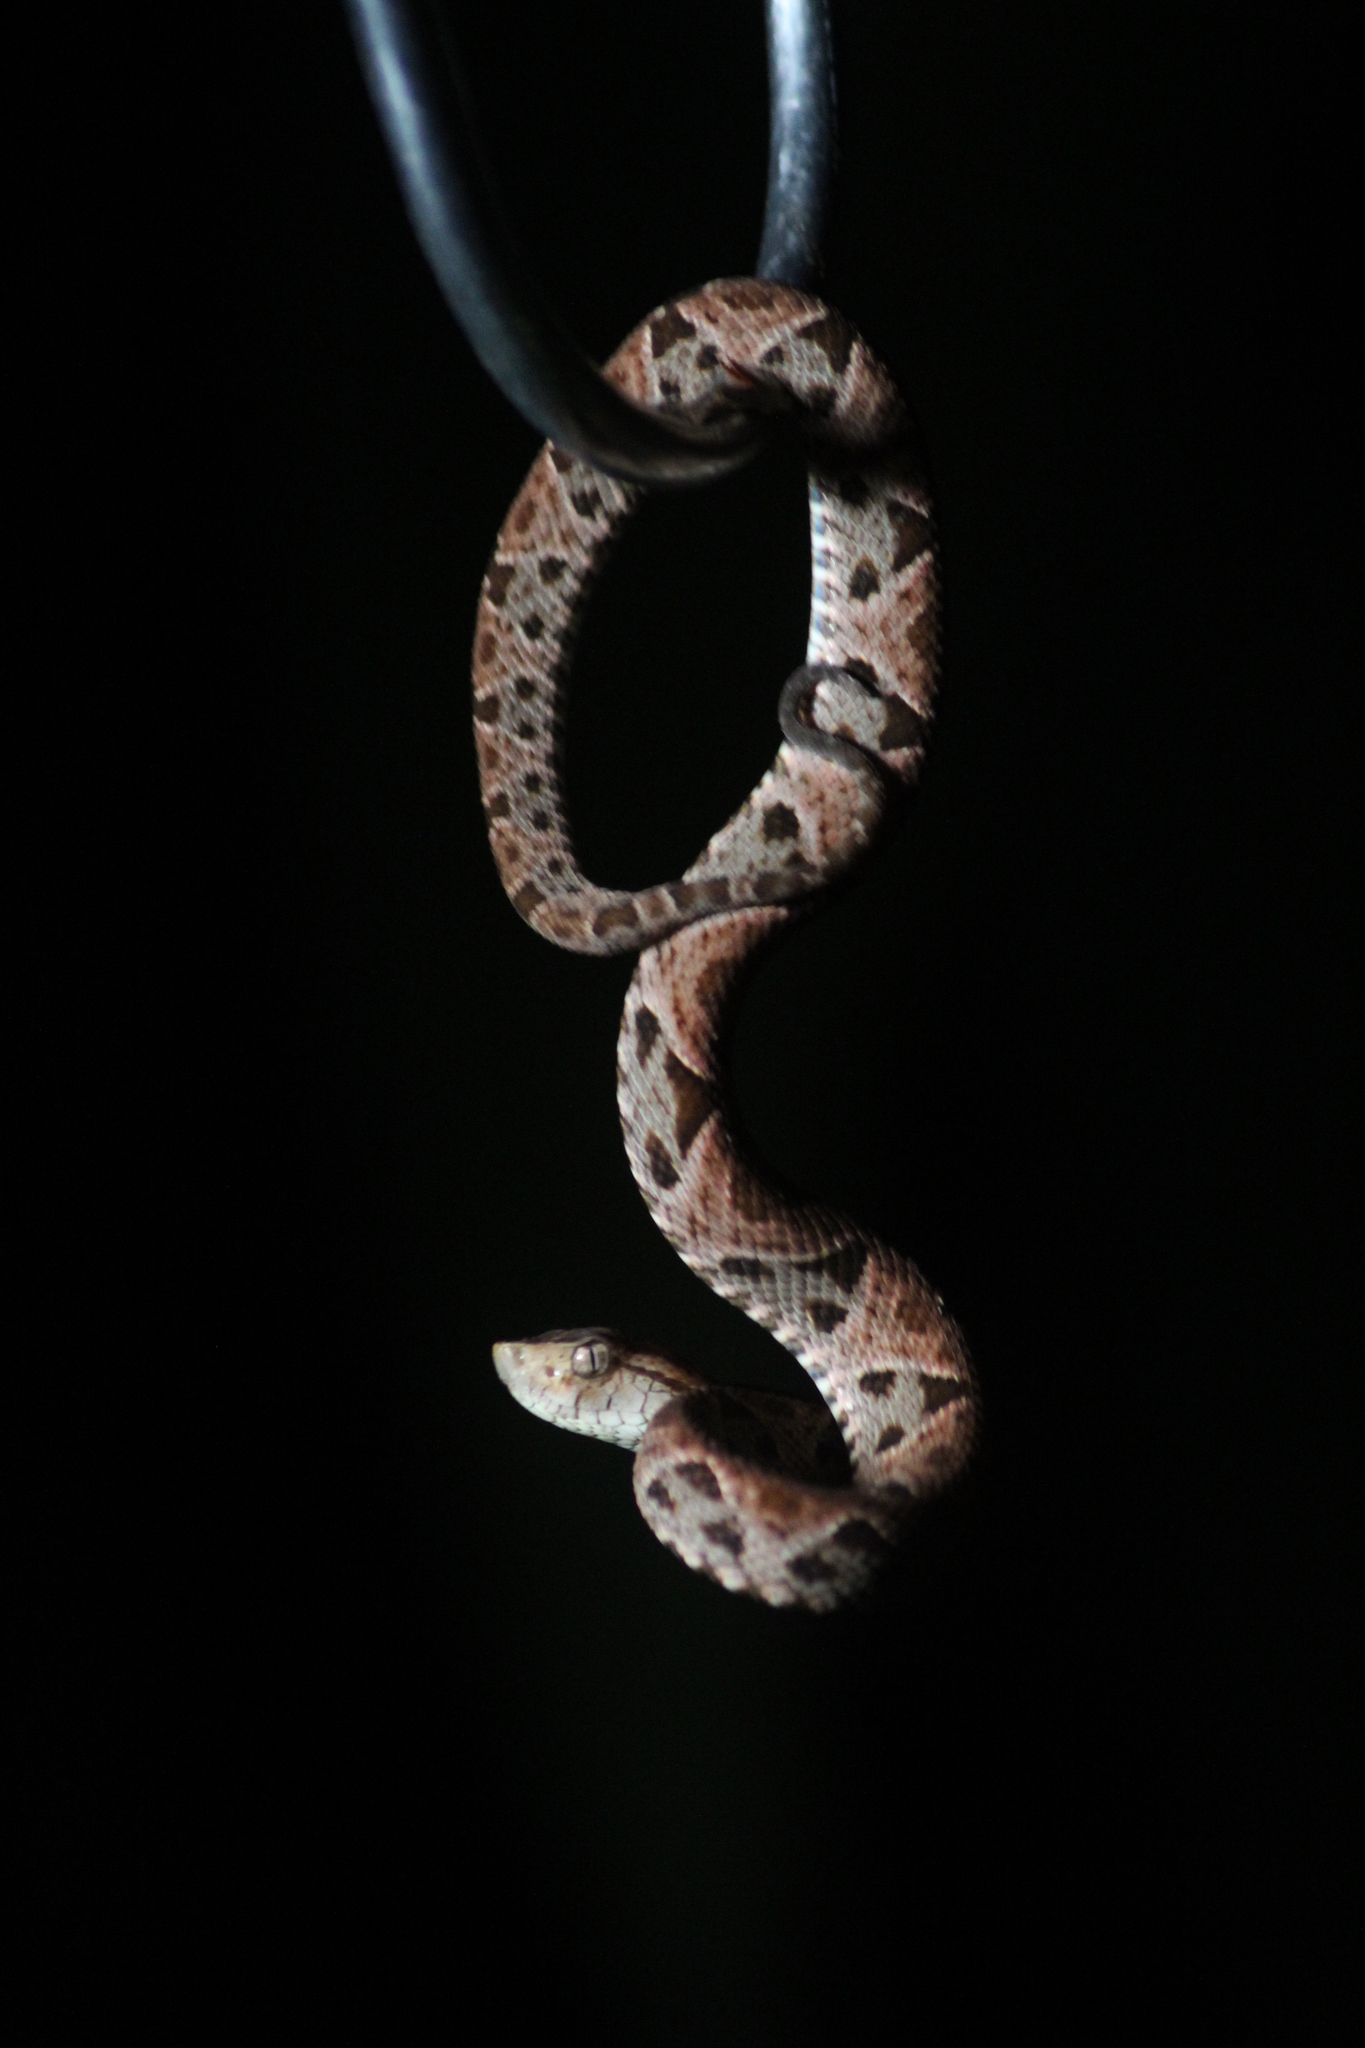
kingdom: Animalia
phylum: Chordata
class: Squamata
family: Viperidae
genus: Bothrops
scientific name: Bothrops asper
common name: Terciopelo
